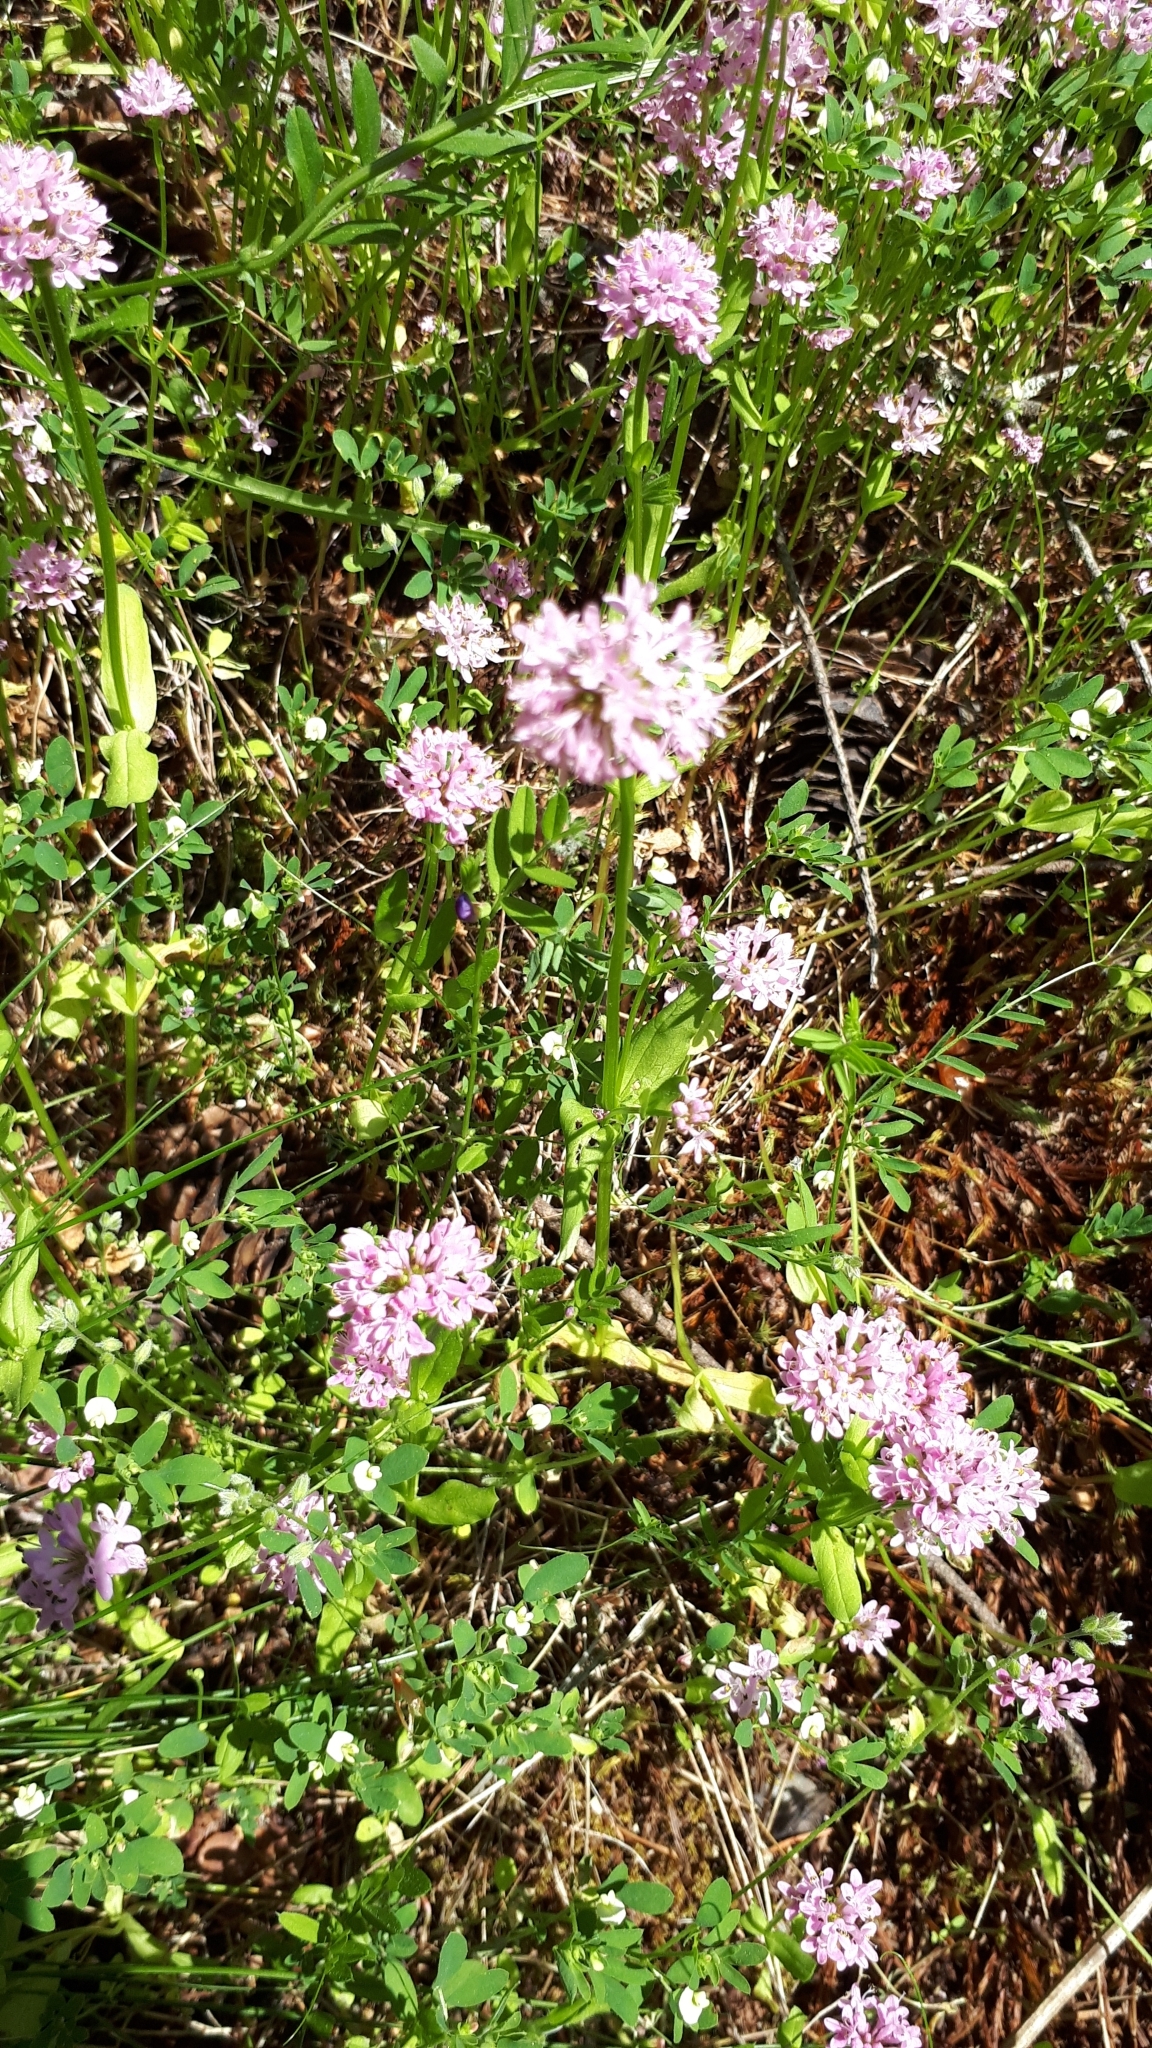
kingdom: Plantae
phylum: Tracheophyta
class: Magnoliopsida
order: Dipsacales
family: Caprifoliaceae
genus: Plectritis
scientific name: Plectritis congesta
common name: Pink plectritis
